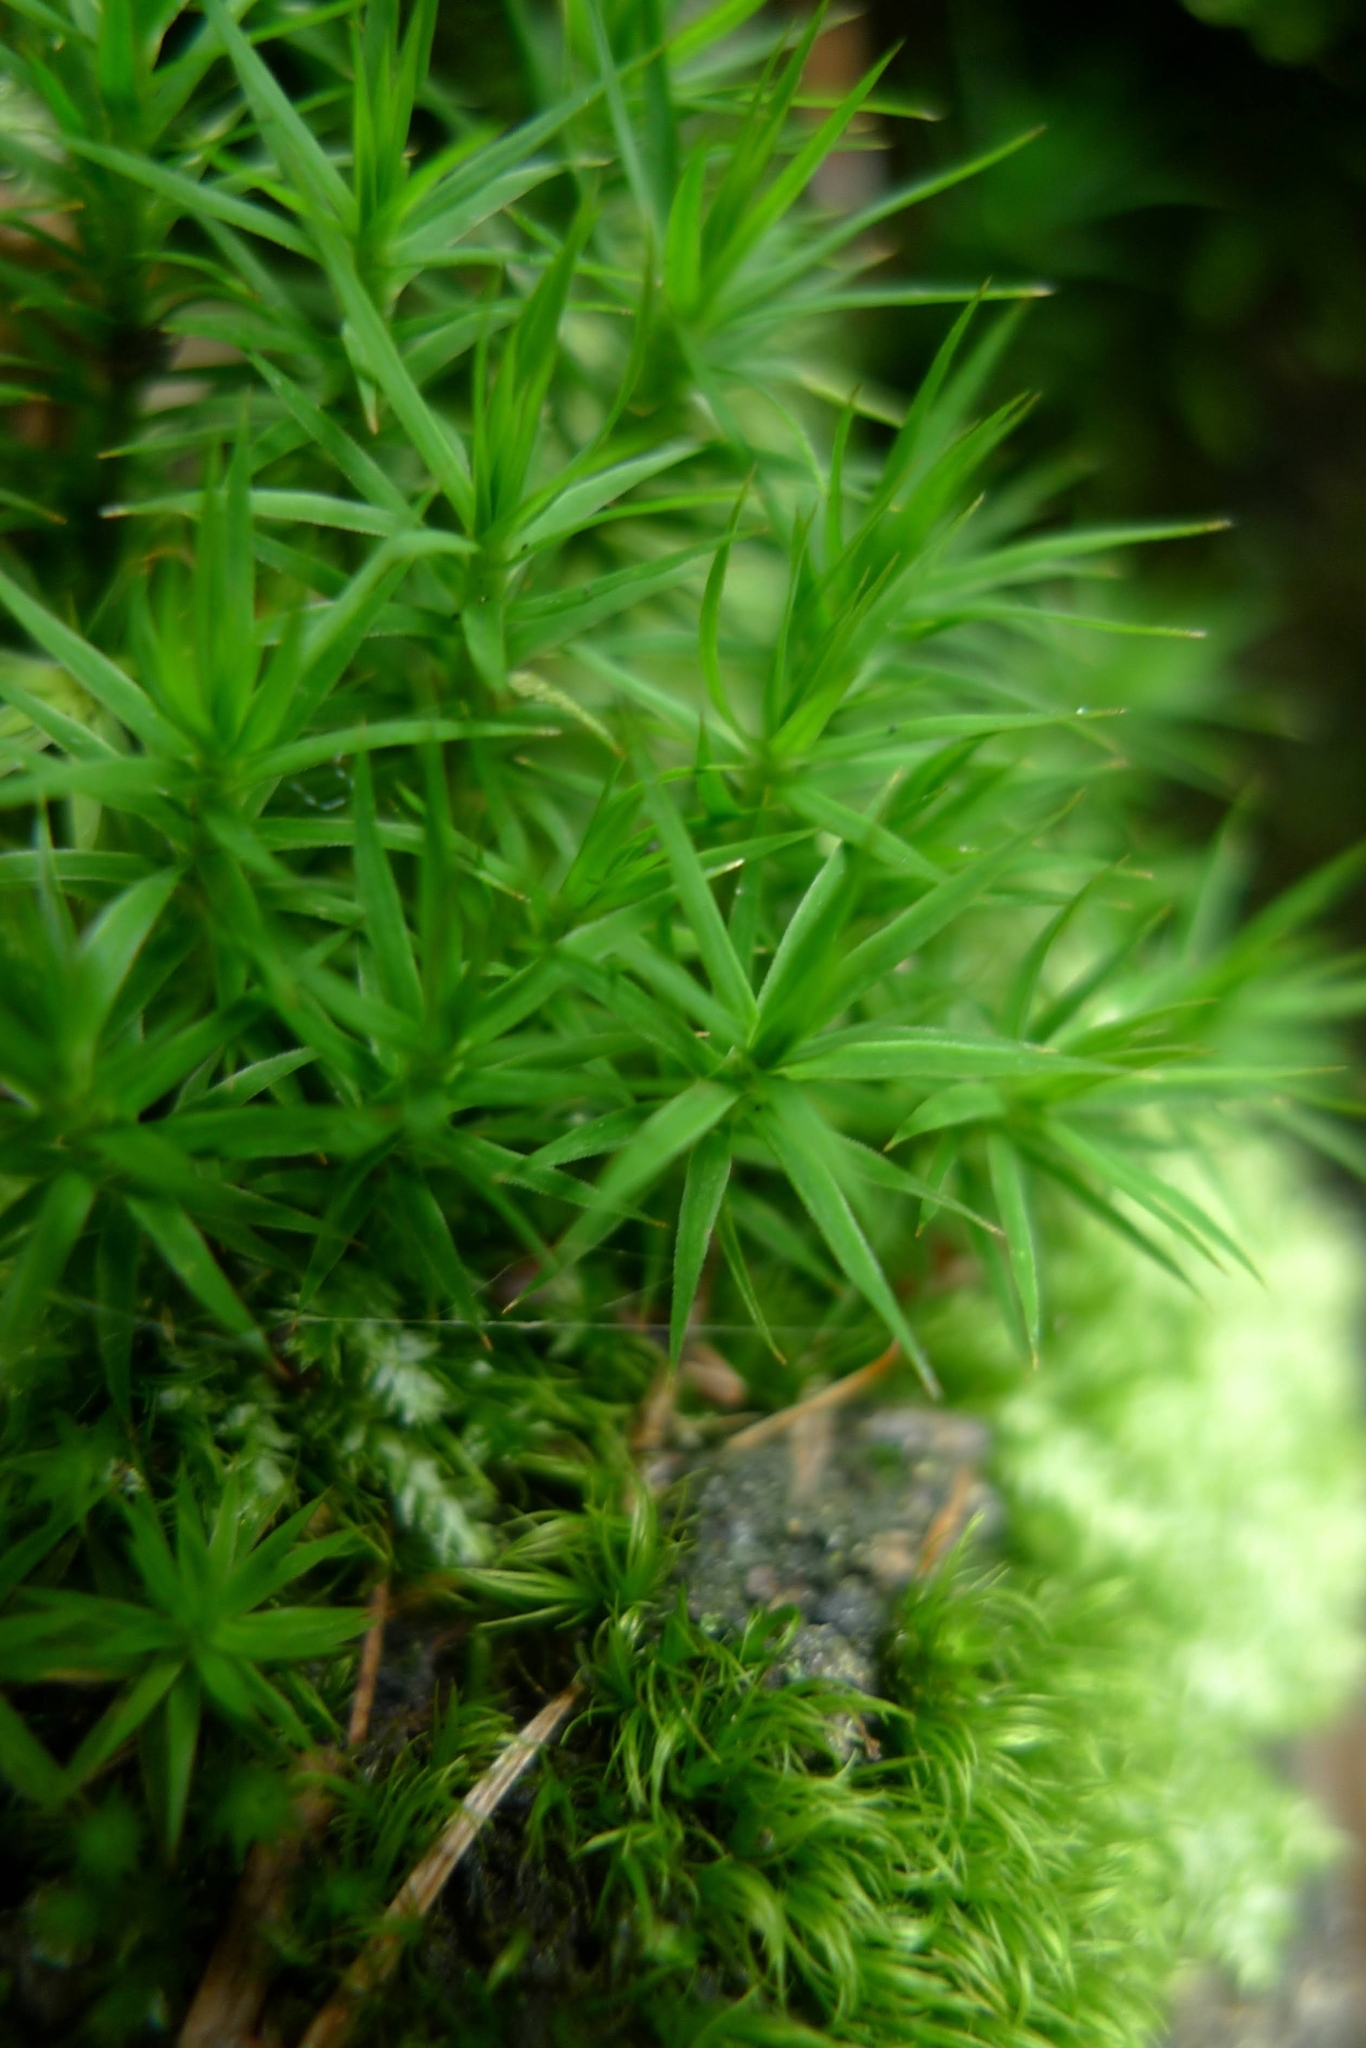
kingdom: Plantae
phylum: Bryophyta
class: Polytrichopsida
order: Polytrichales
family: Polytrichaceae
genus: Polytrichum
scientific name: Polytrichum formosum
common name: Bank haircap moss
